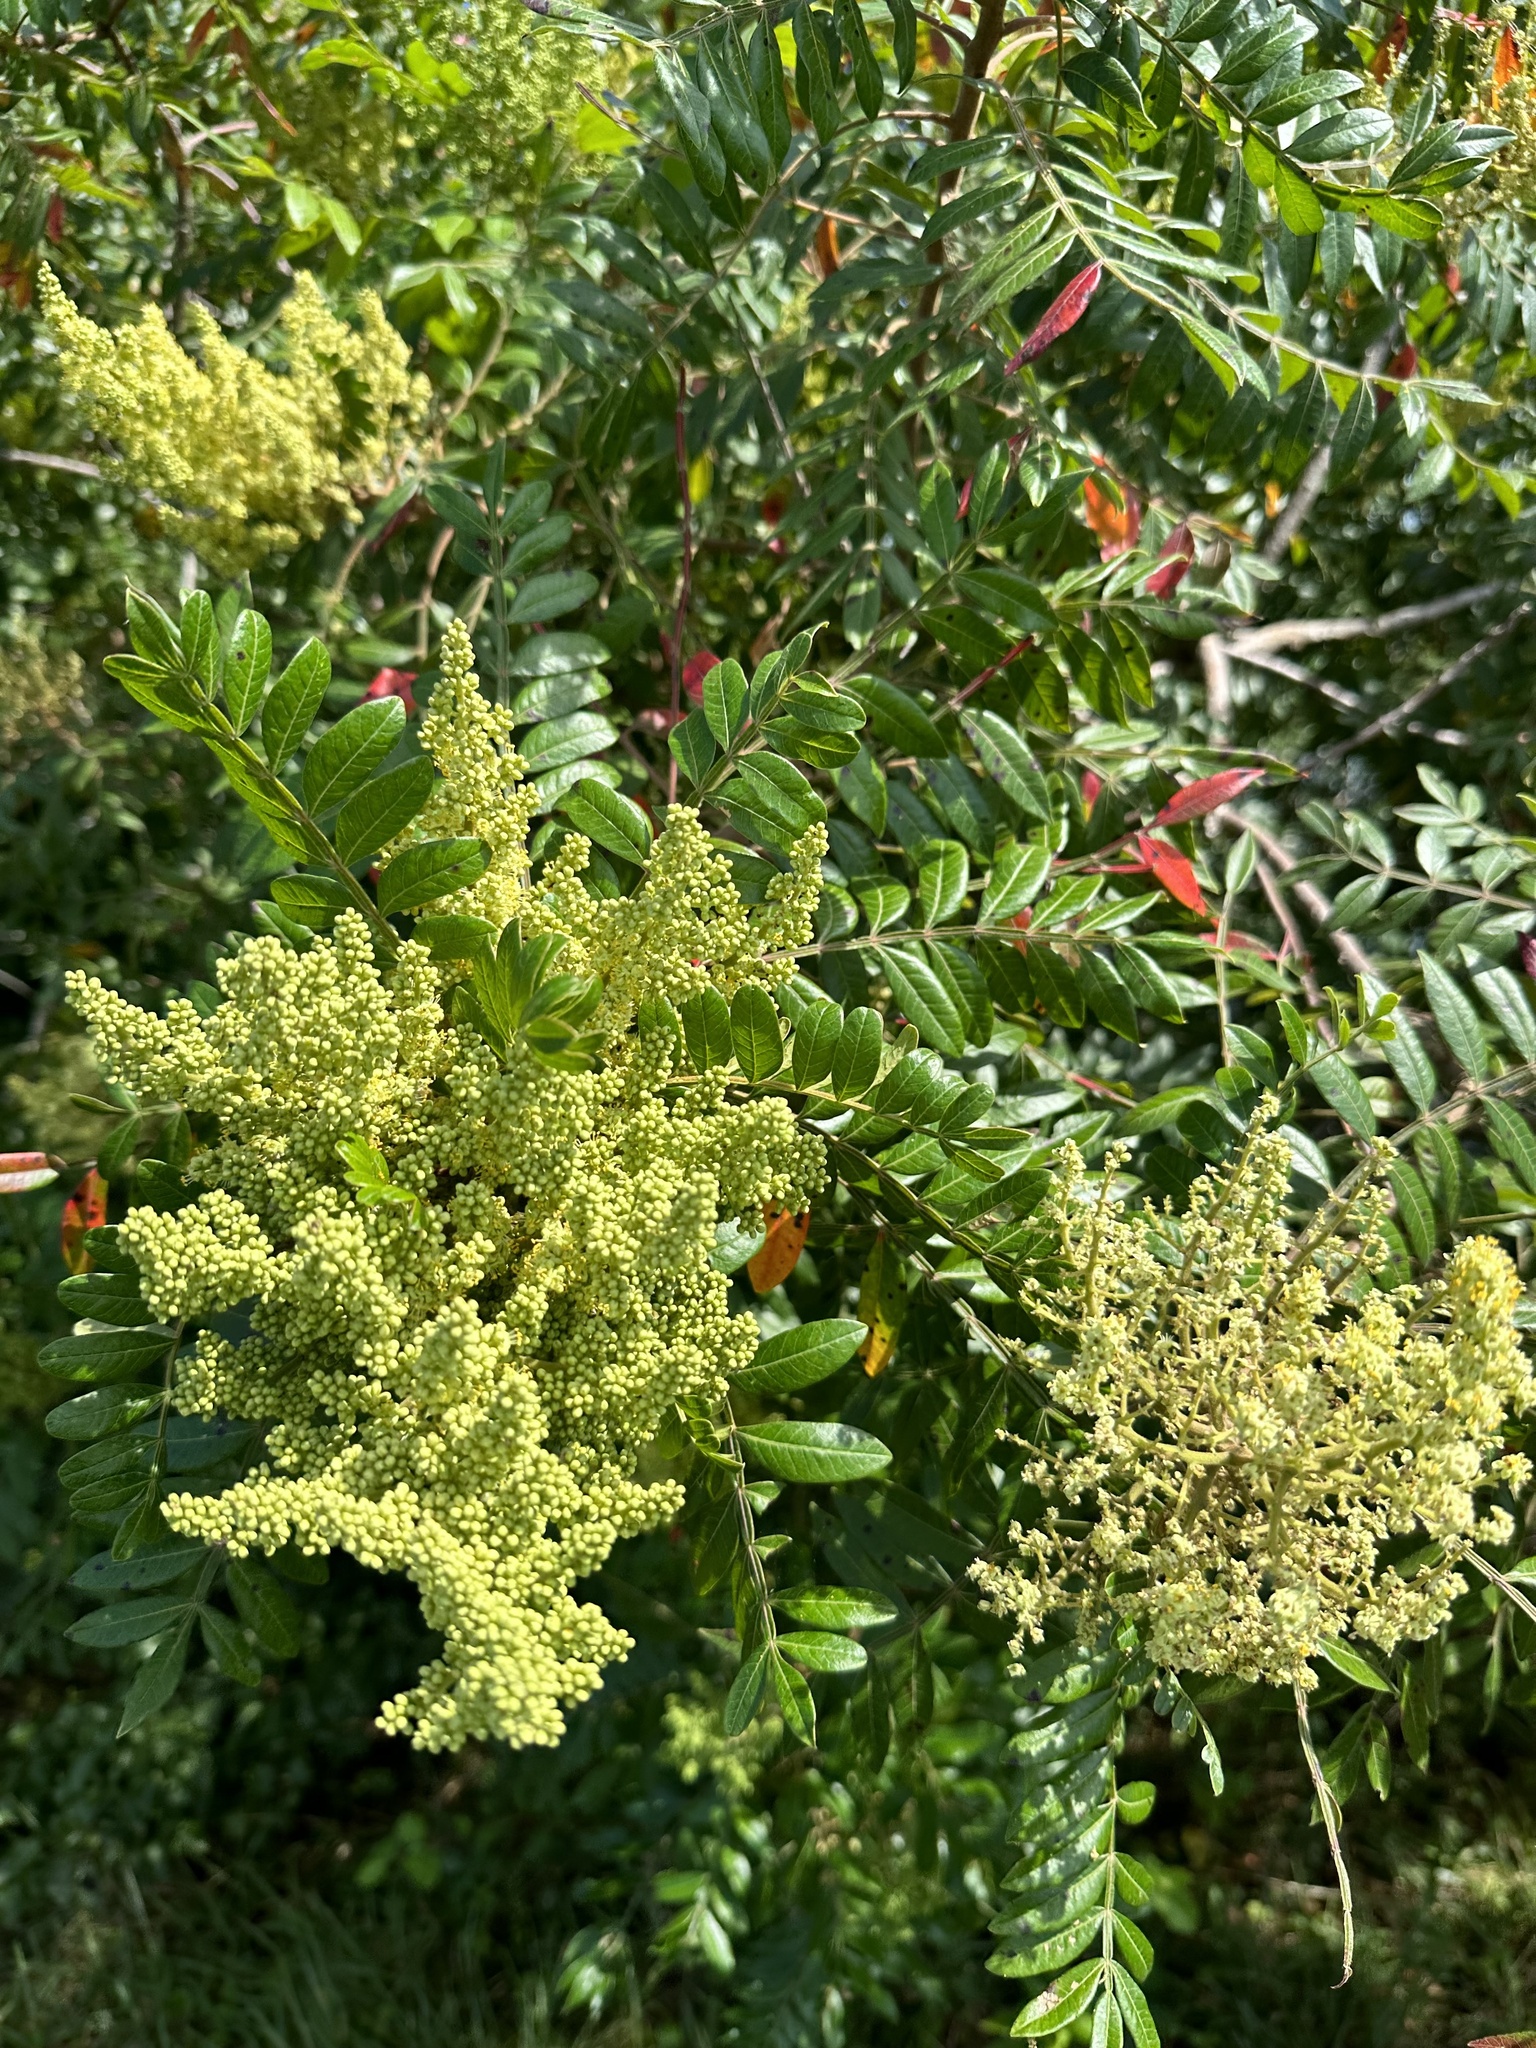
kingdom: Plantae
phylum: Tracheophyta
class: Magnoliopsida
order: Sapindales
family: Anacardiaceae
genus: Rhus
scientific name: Rhus copallina
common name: Shining sumac
